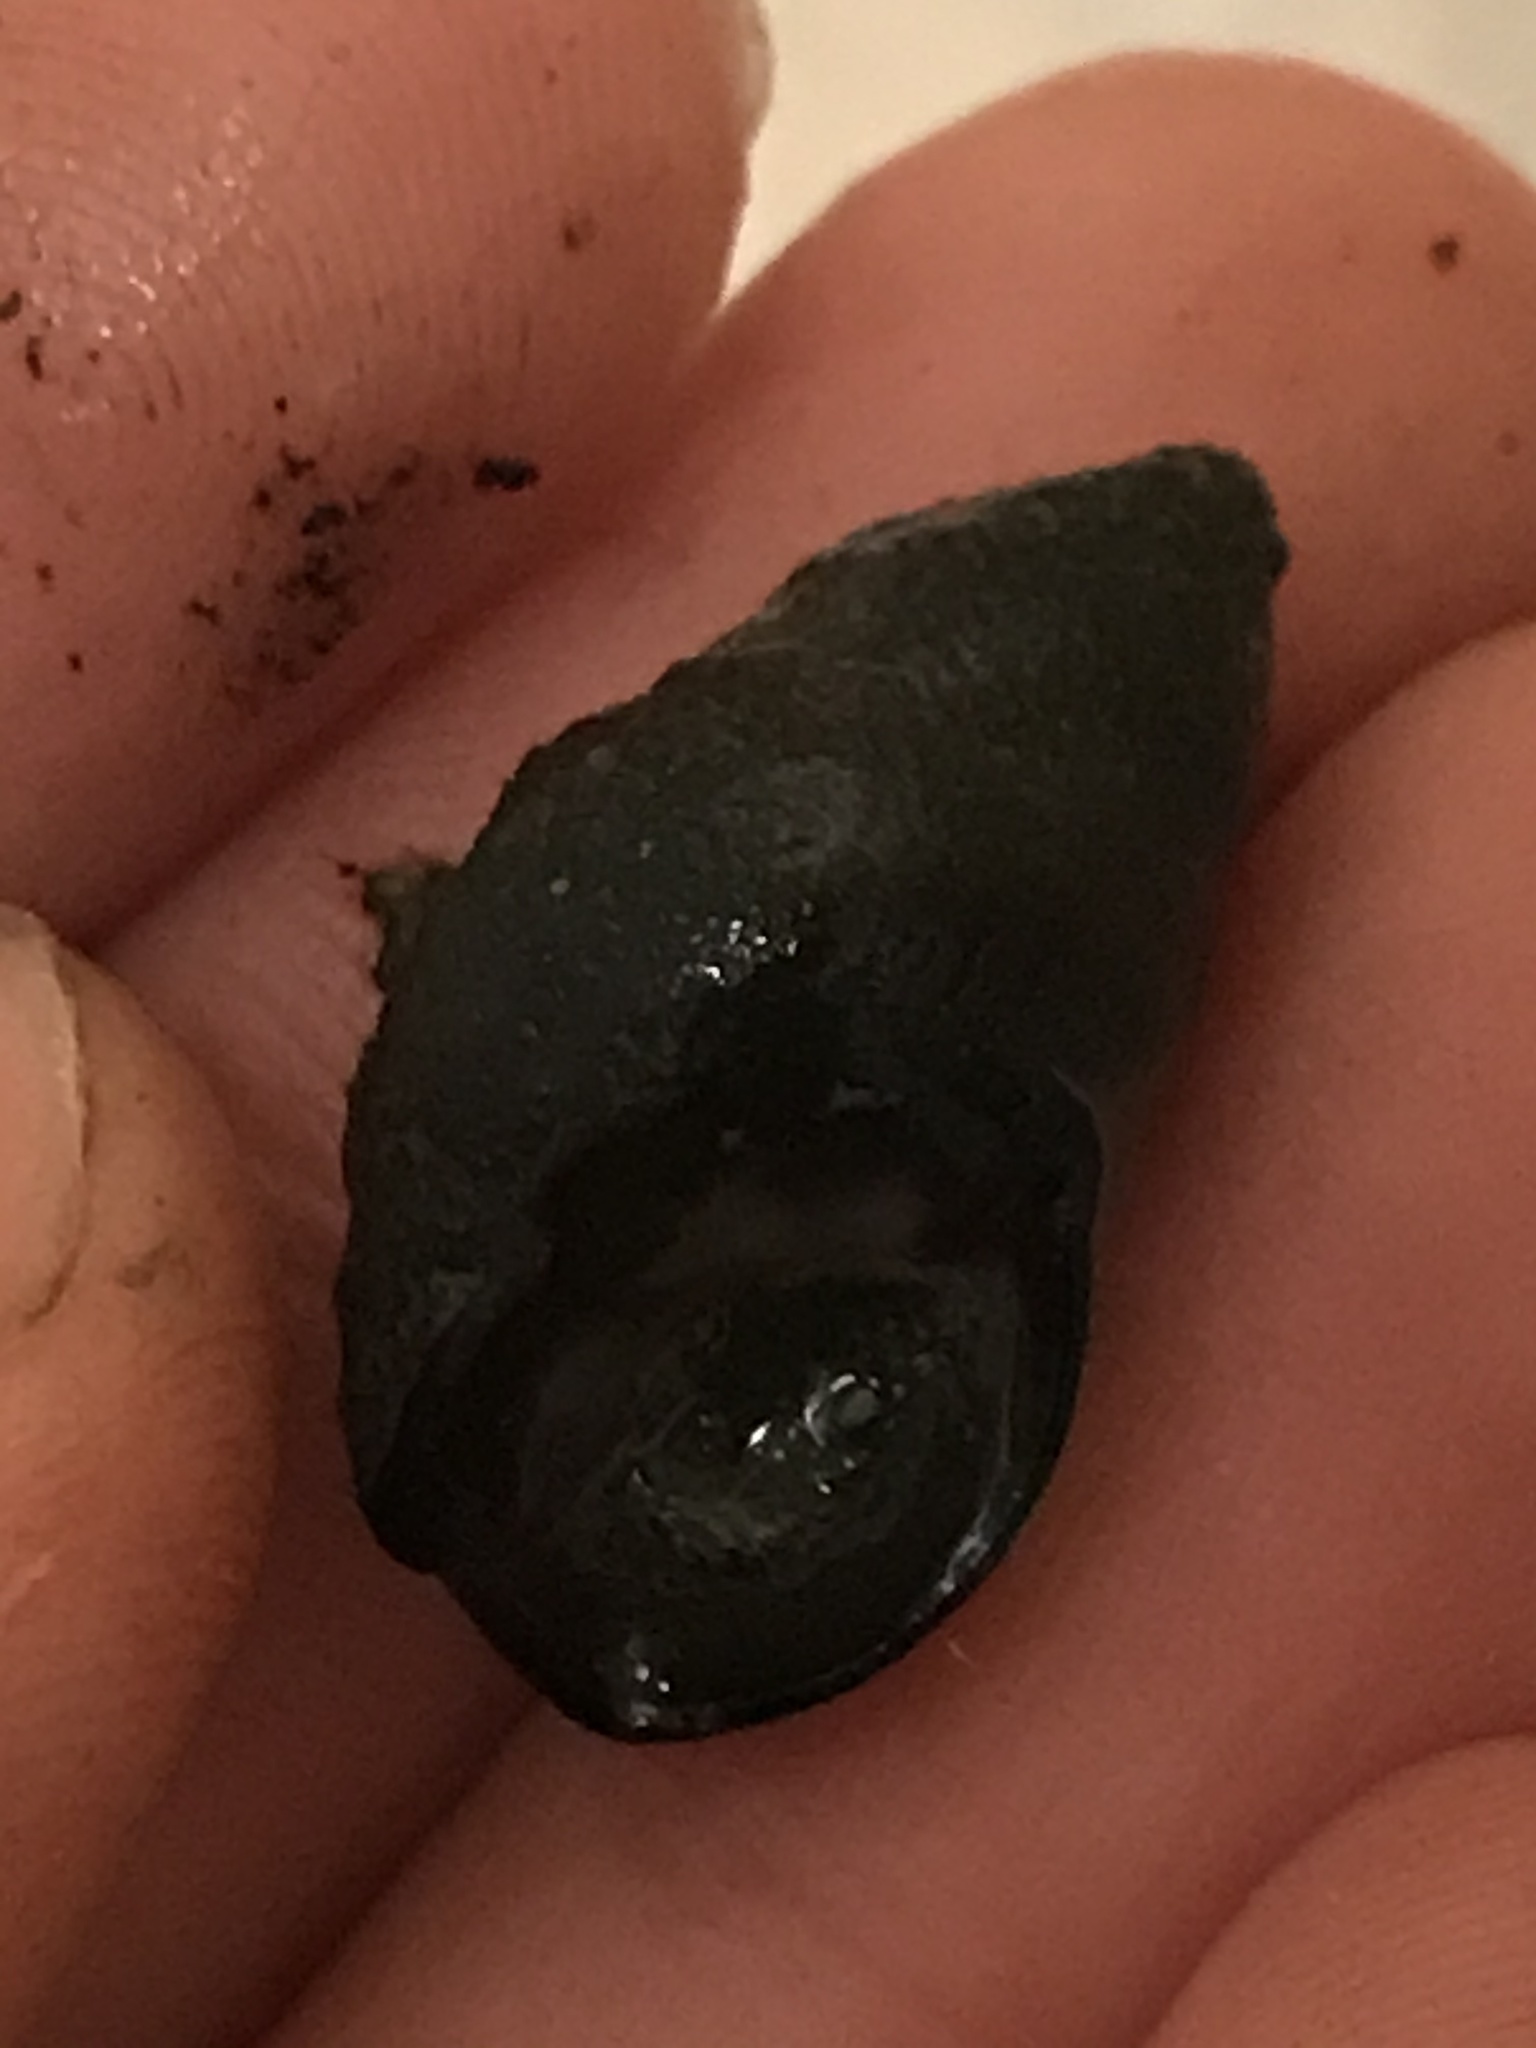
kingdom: Animalia
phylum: Mollusca
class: Gastropoda
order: Neogastropoda
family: Nassariidae
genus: Ilyanassa
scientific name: Ilyanassa obsoleta
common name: Eastern mudsnail
